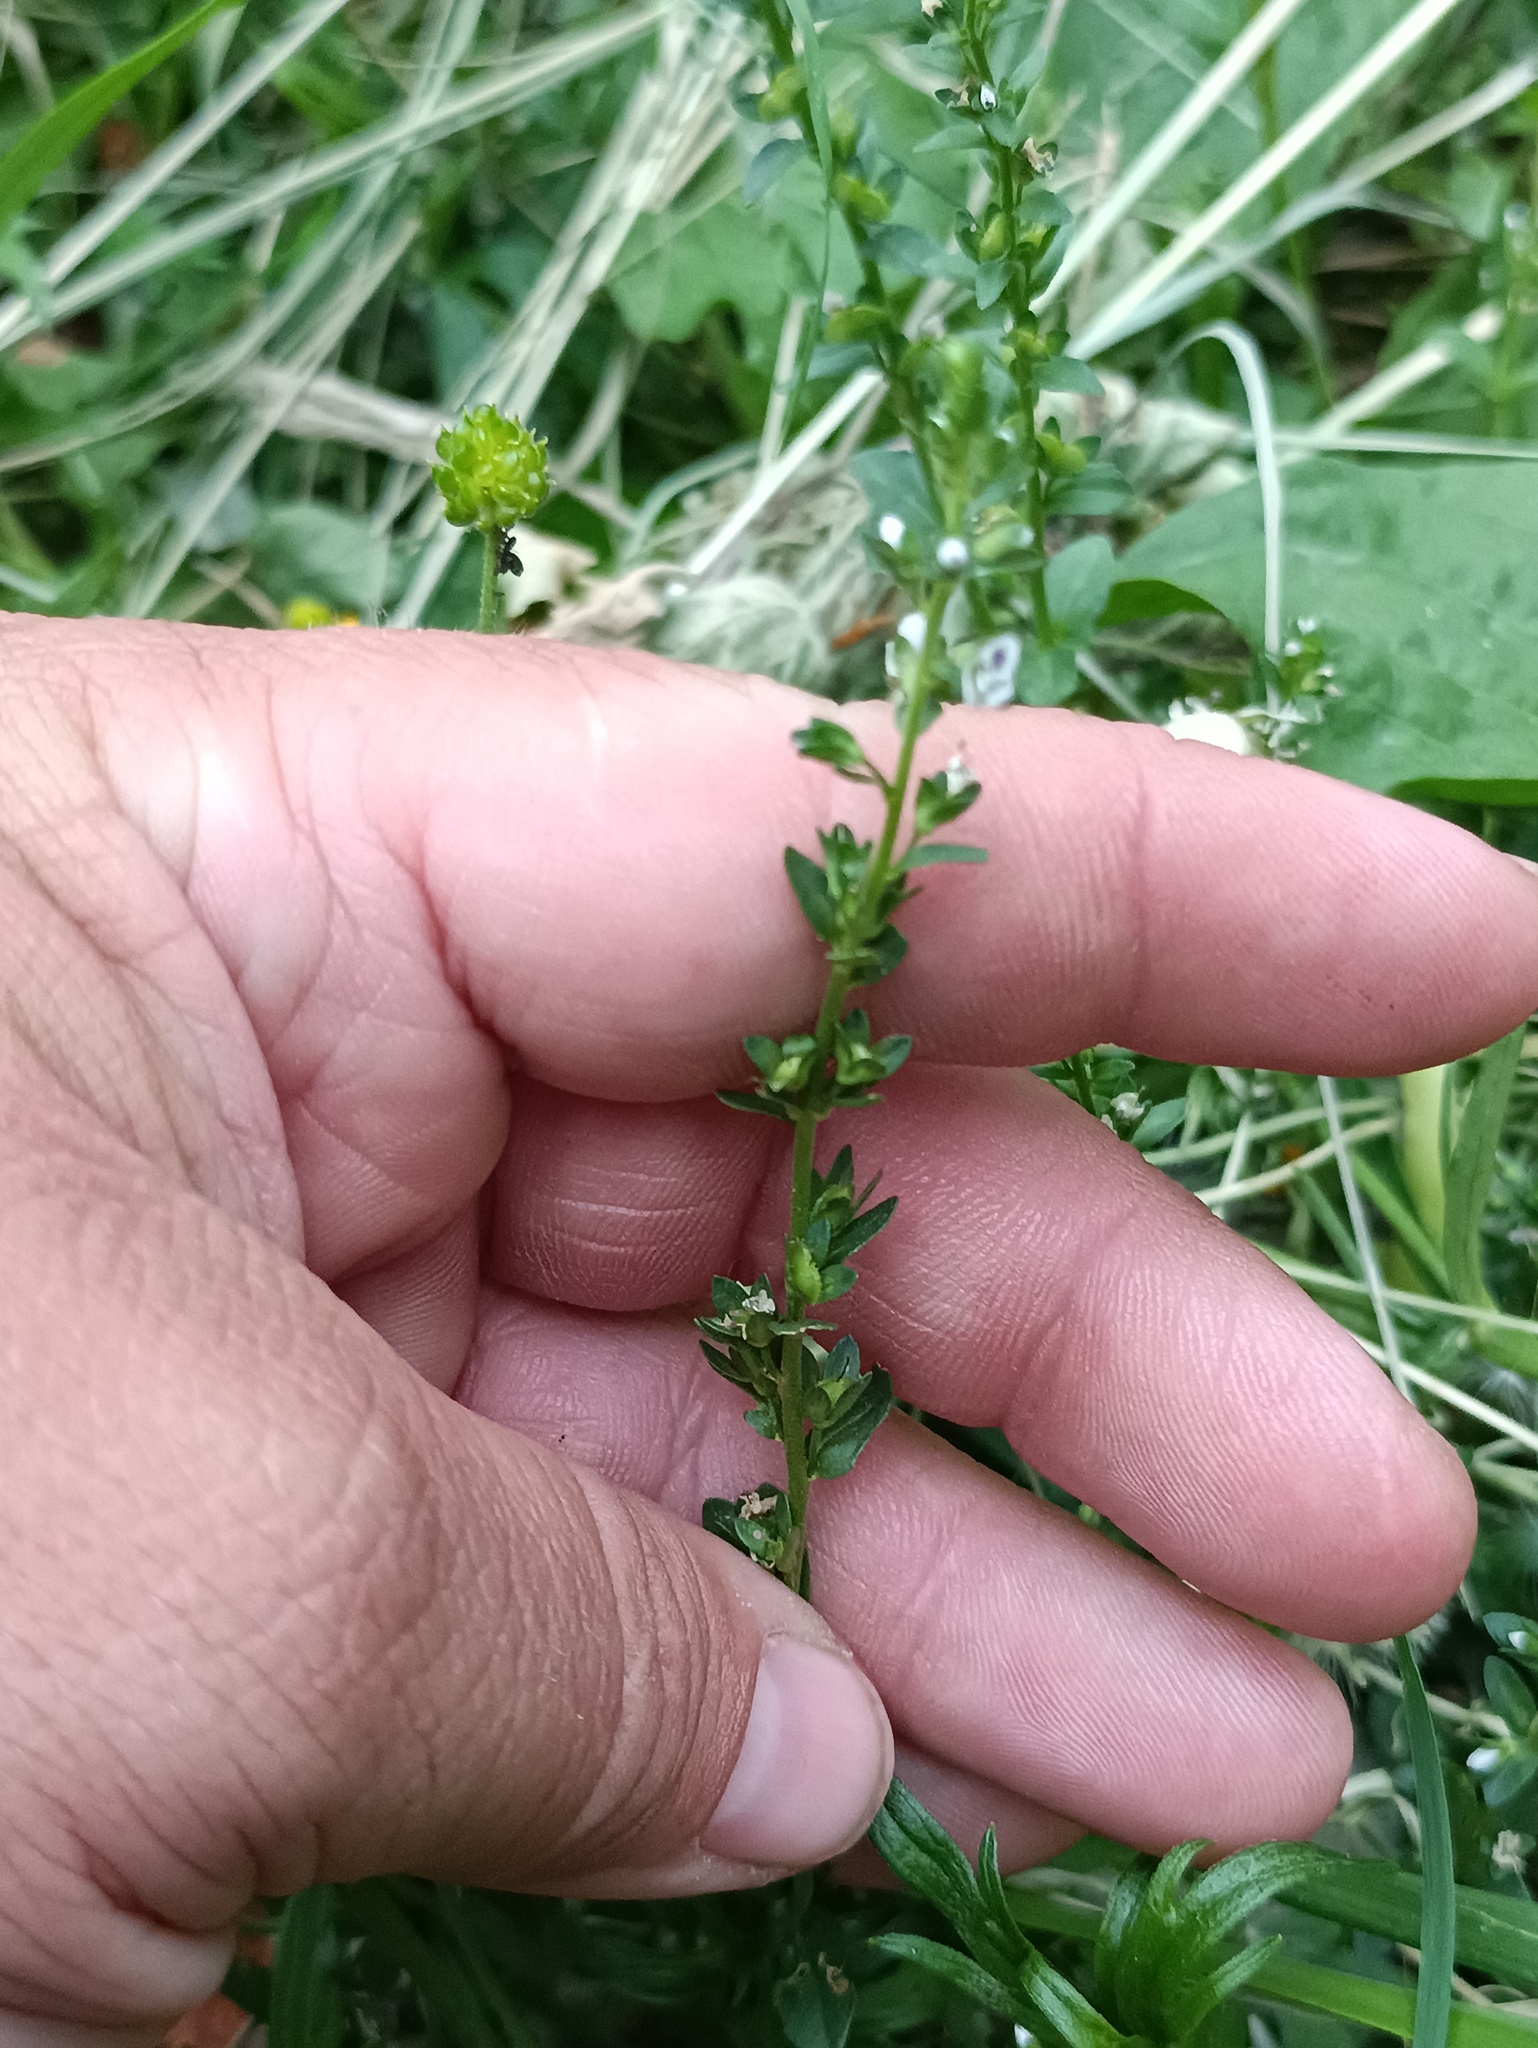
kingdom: Plantae
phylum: Tracheophyta
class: Magnoliopsida
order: Lamiales
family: Plantaginaceae
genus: Veronica
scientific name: Veronica serpyllifolia
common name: Thyme-leaved speedwell
